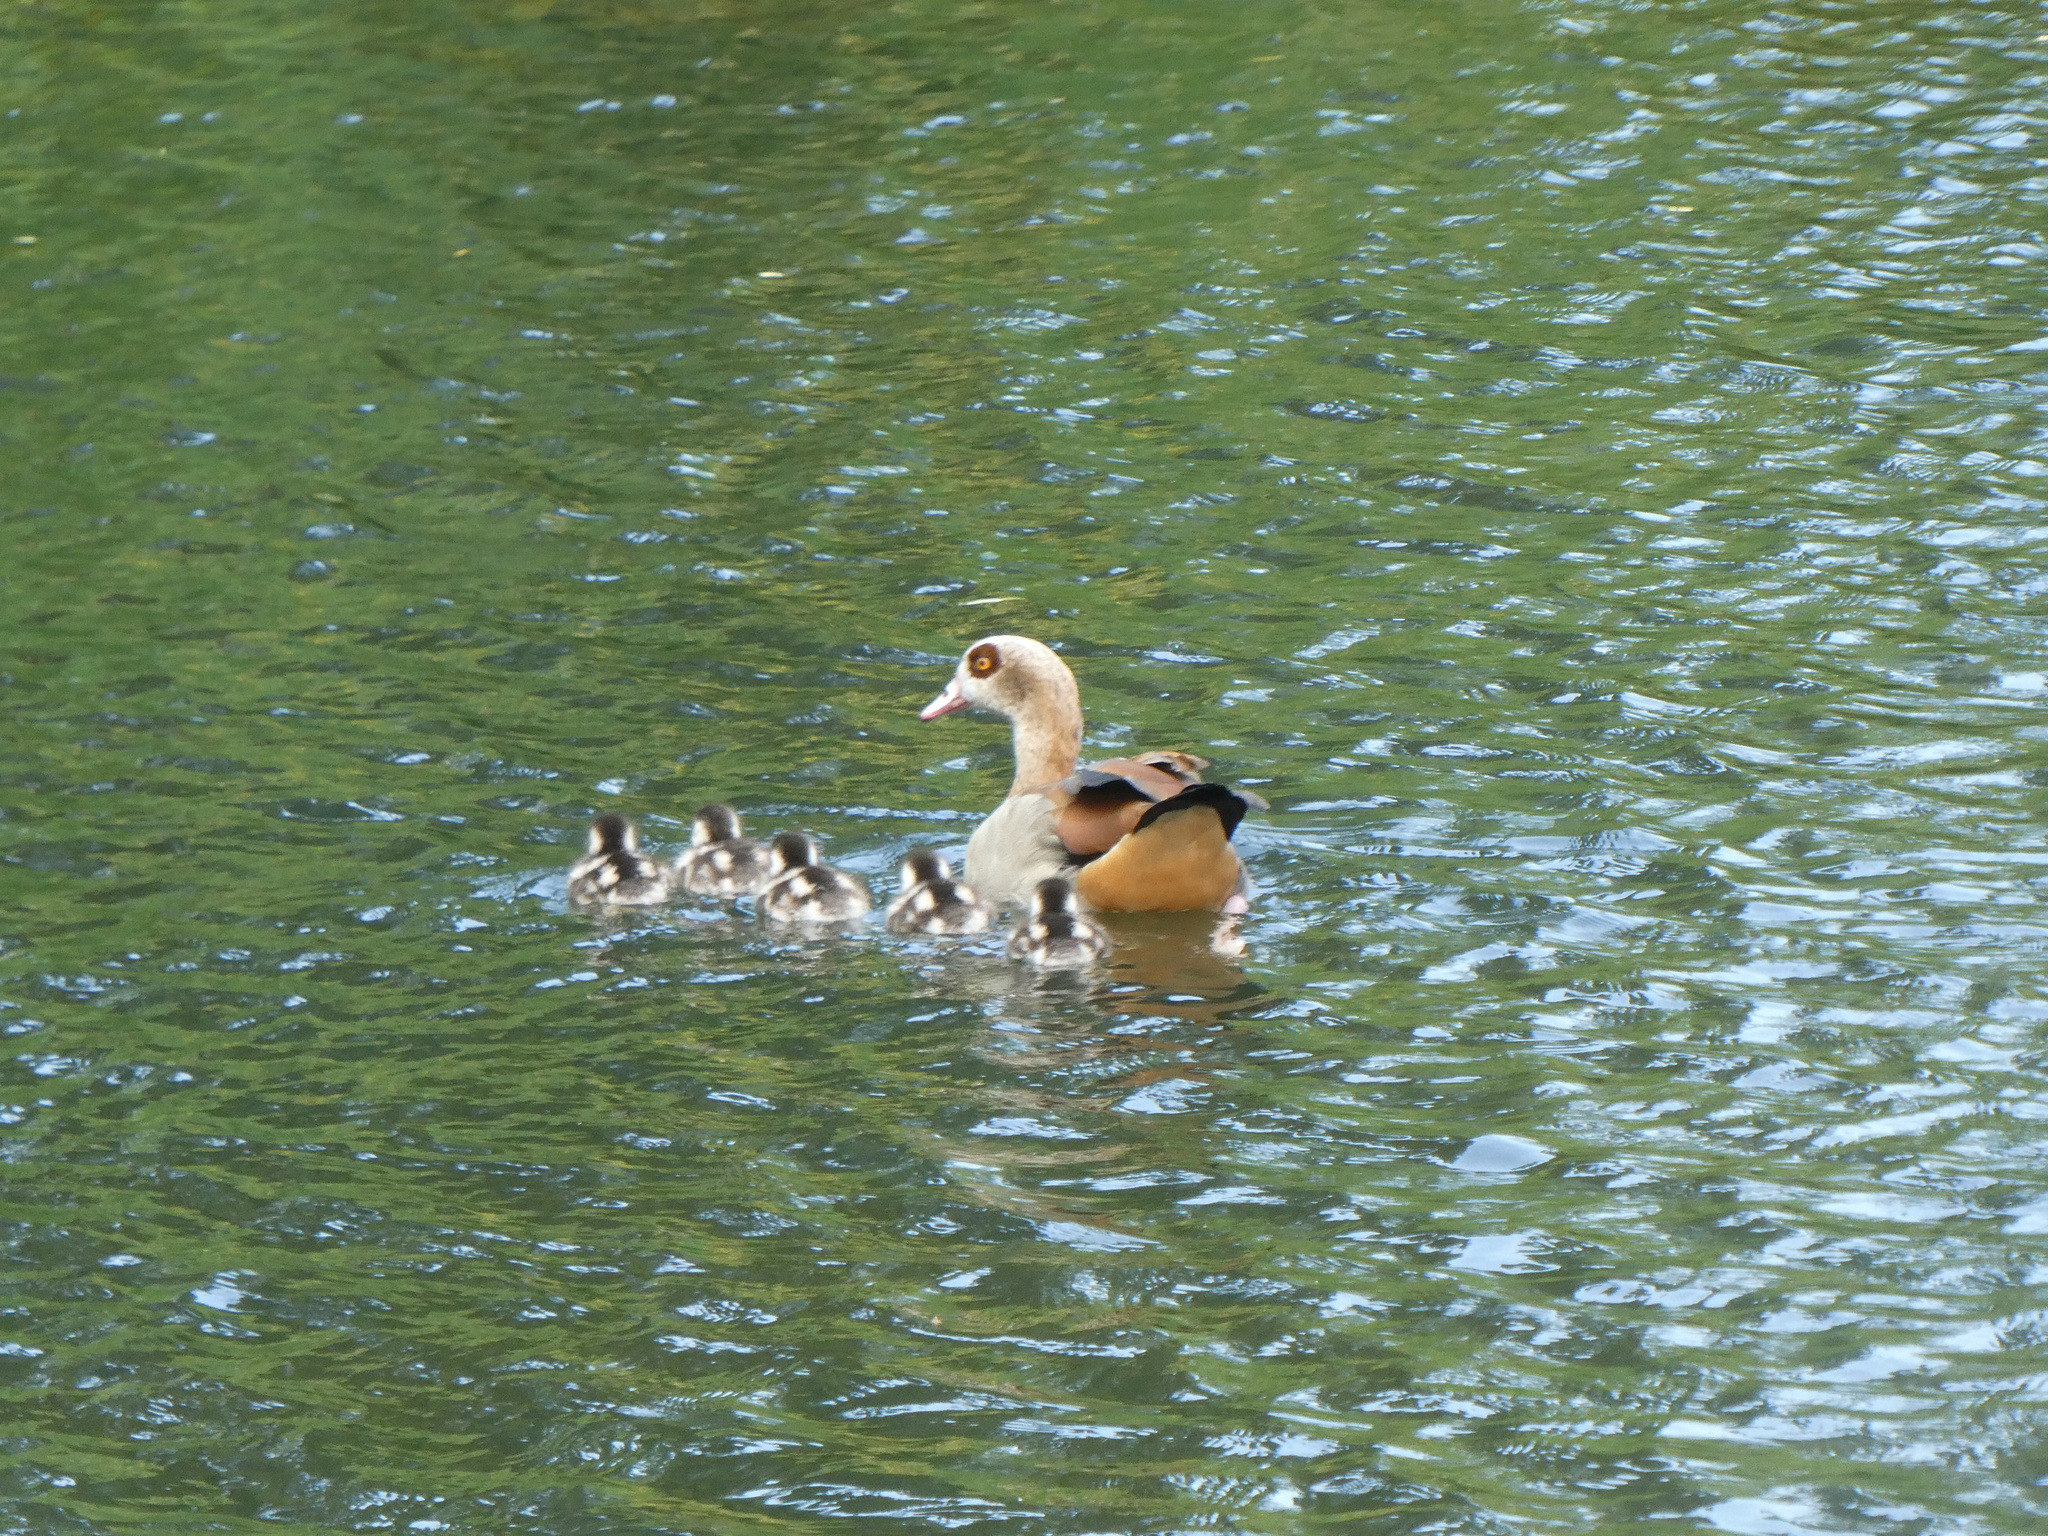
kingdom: Animalia
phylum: Chordata
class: Aves
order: Anseriformes
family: Anatidae
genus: Alopochen
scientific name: Alopochen aegyptiaca
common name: Egyptian goose
